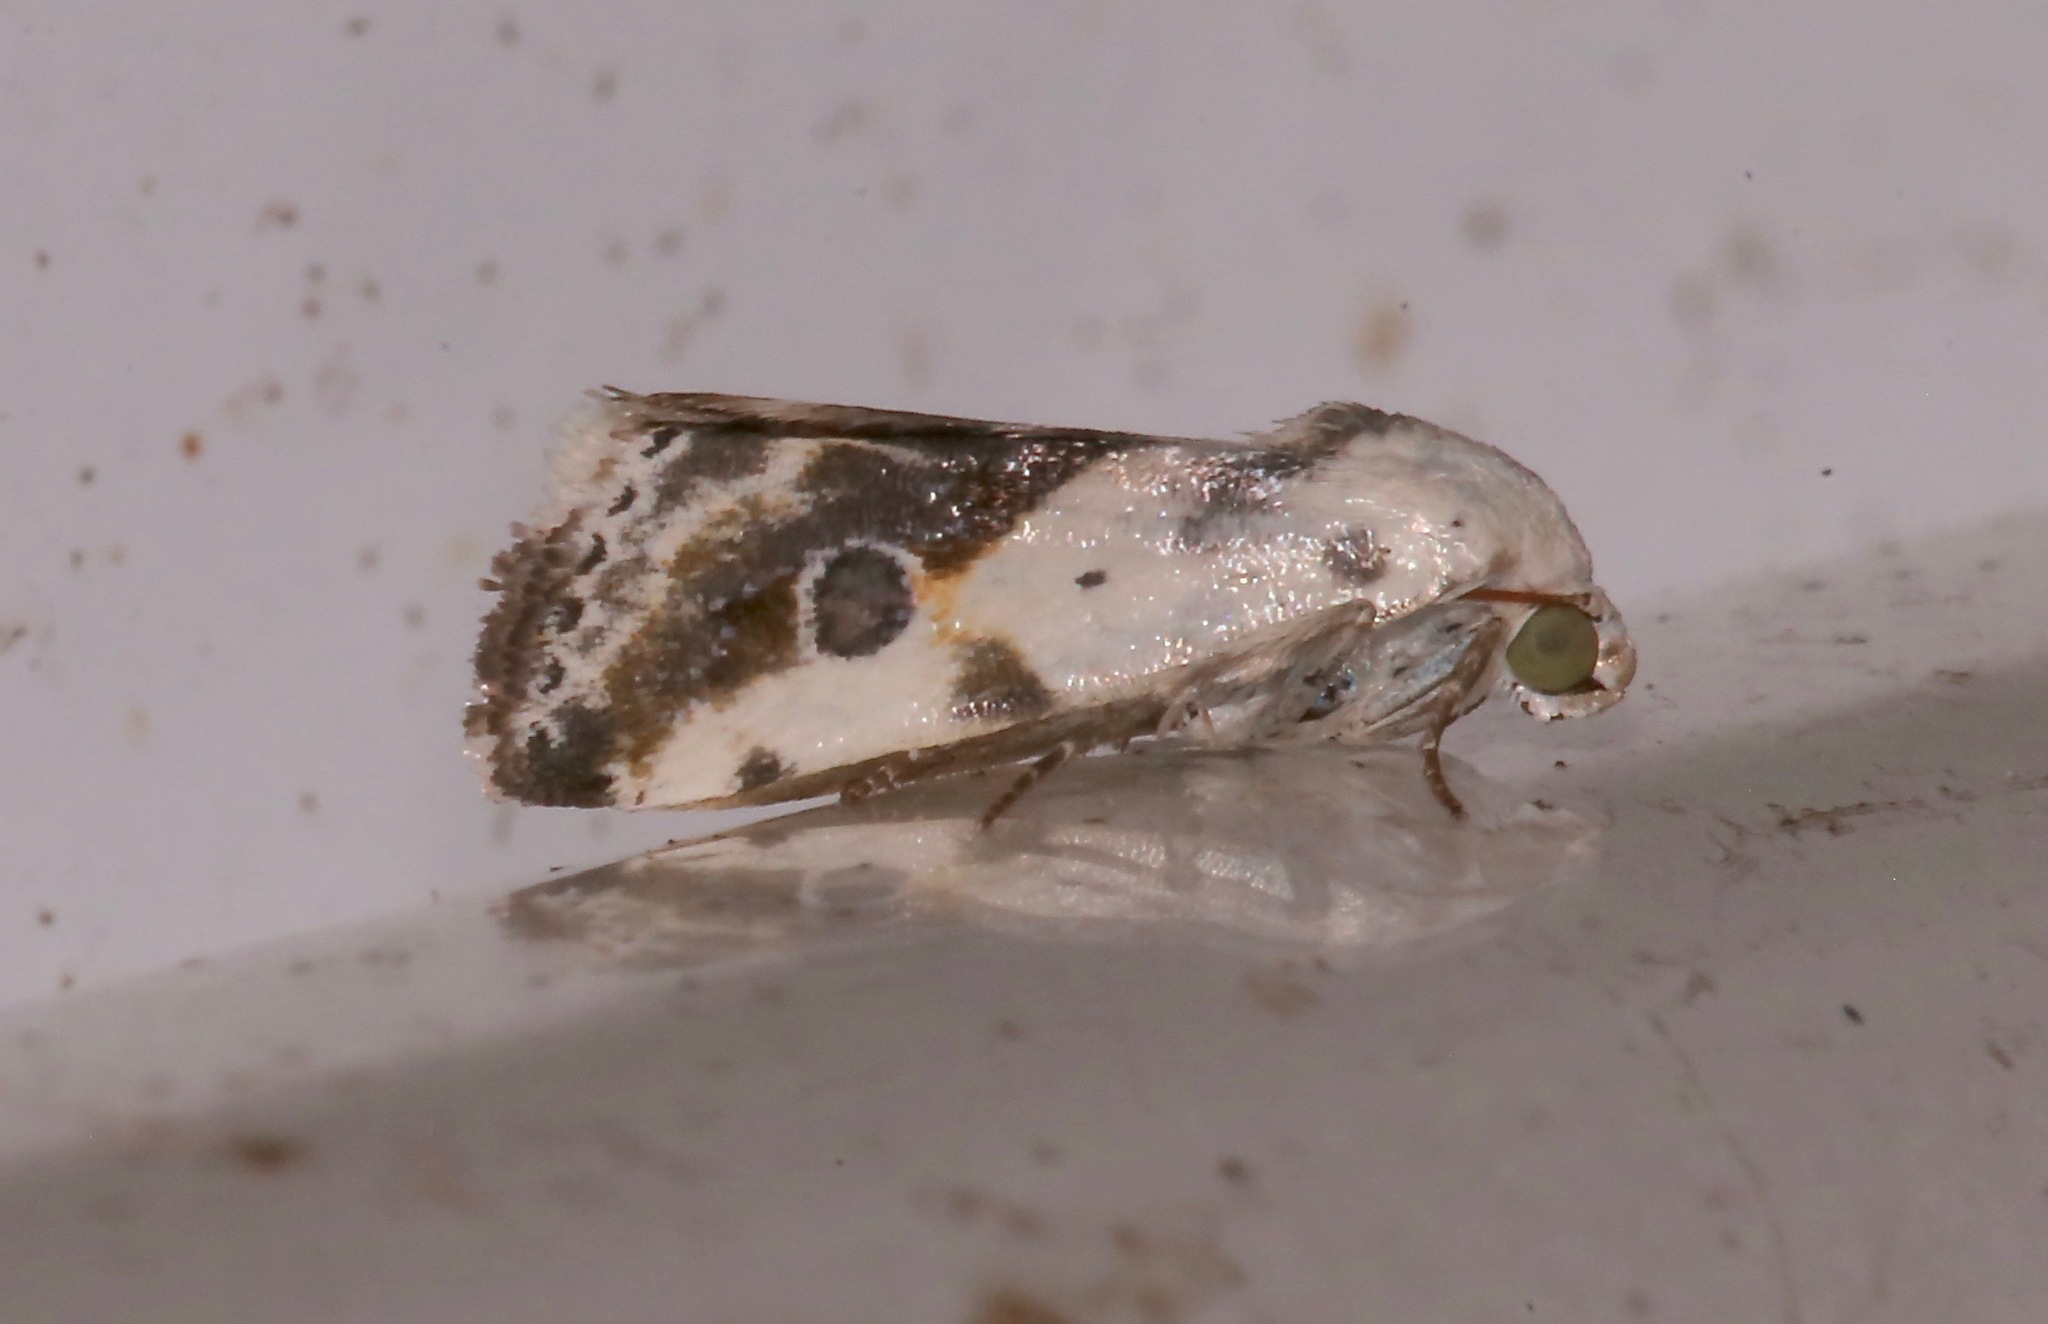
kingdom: Animalia
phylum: Arthropoda
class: Insecta
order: Lepidoptera
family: Noctuidae
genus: Acontia
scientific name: Acontia candefacta
